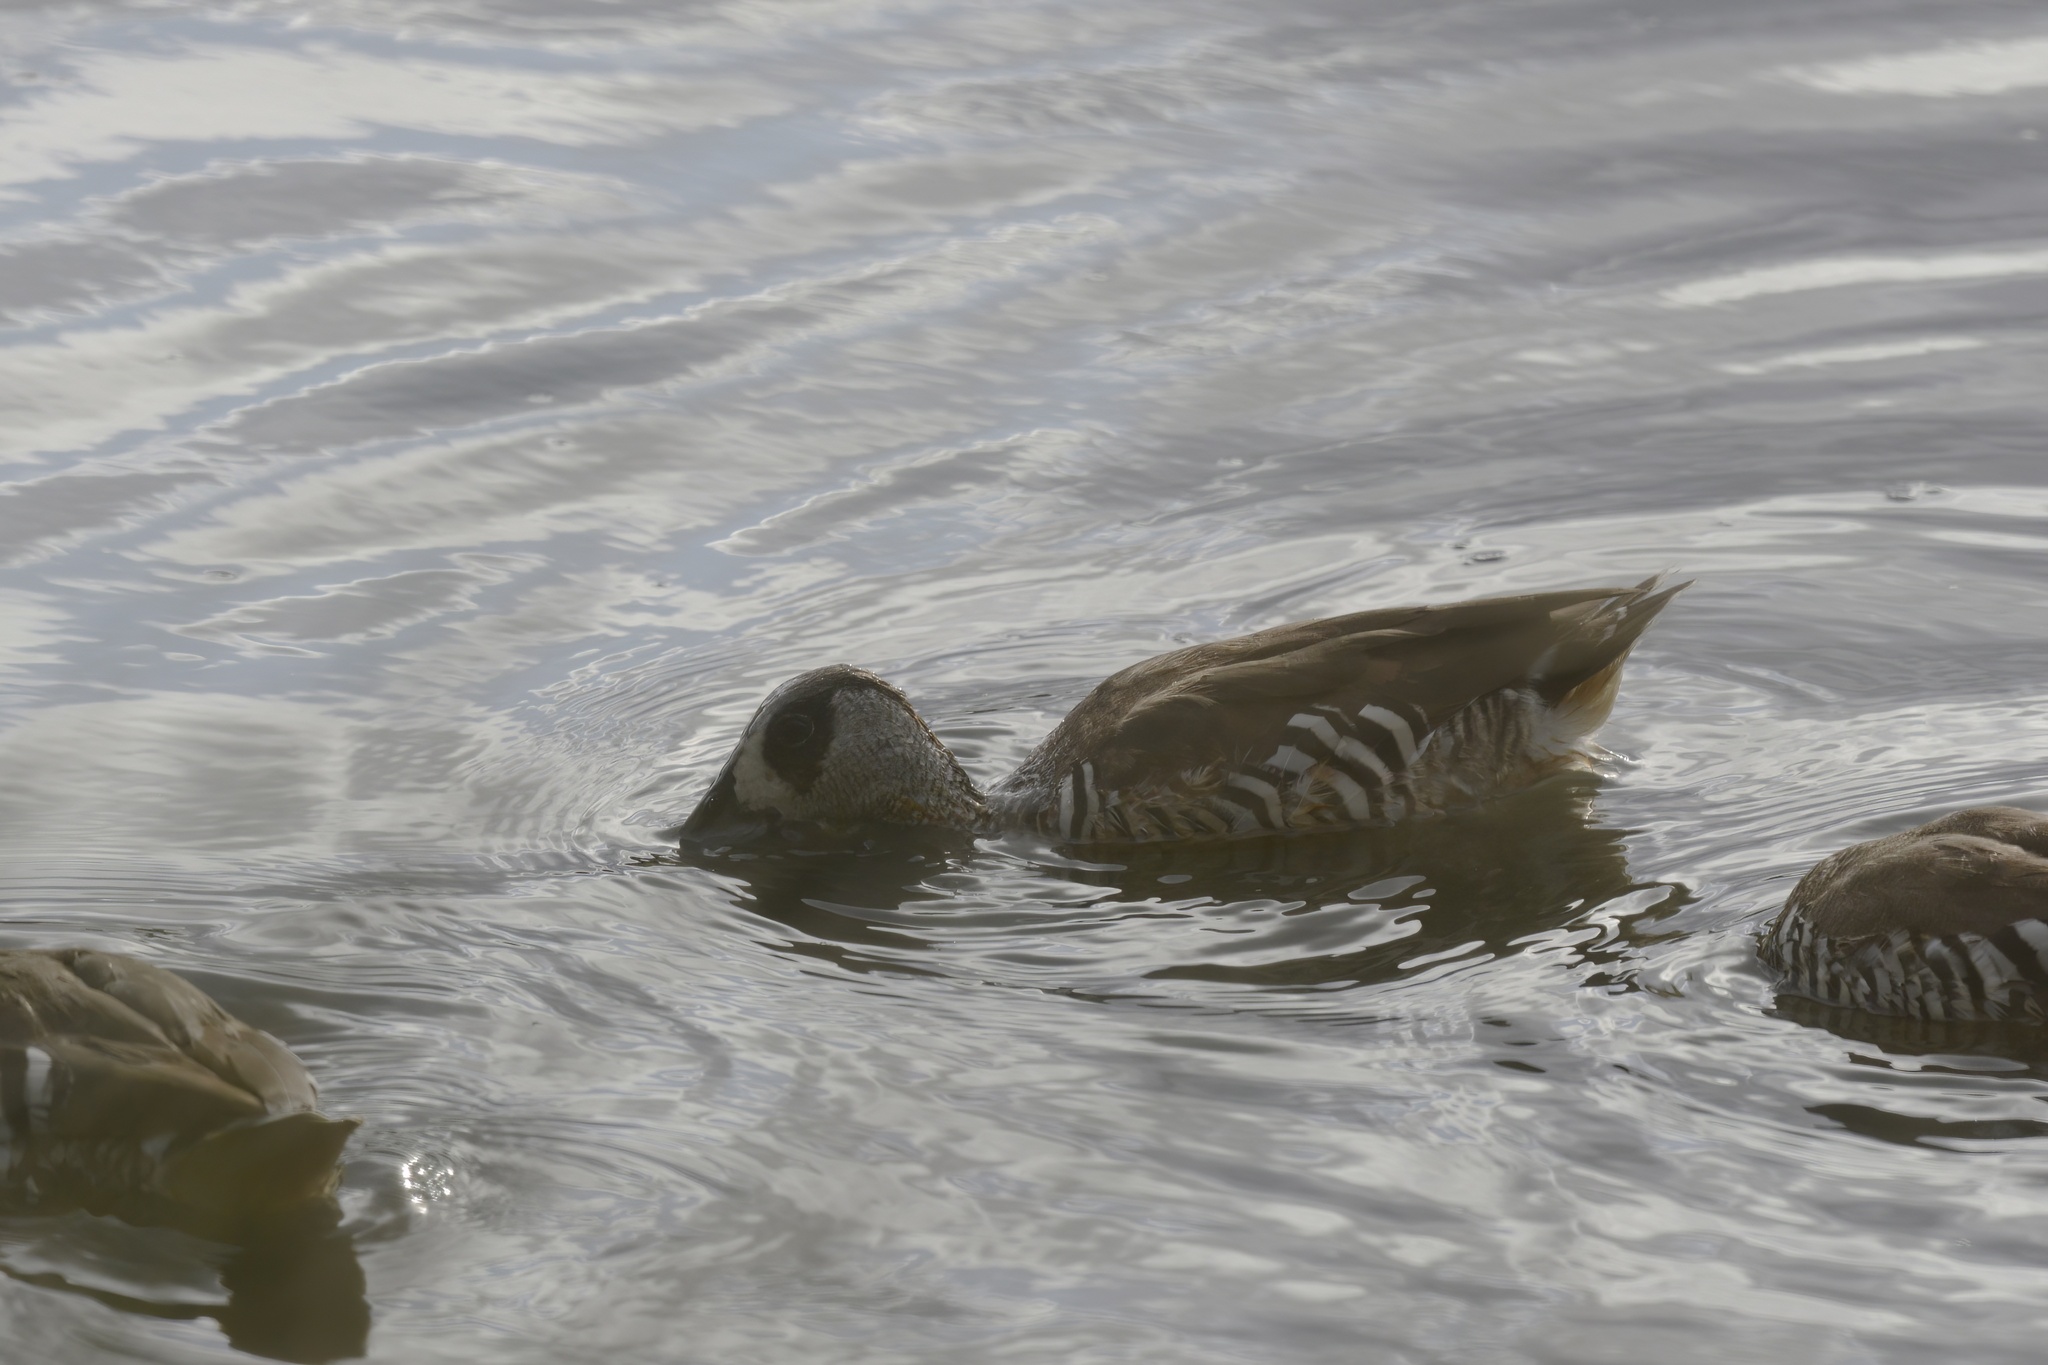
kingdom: Animalia
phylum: Chordata
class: Aves
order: Anseriformes
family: Anatidae
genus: Malacorhynchus
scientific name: Malacorhynchus membranaceus
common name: Pink-eared duck
